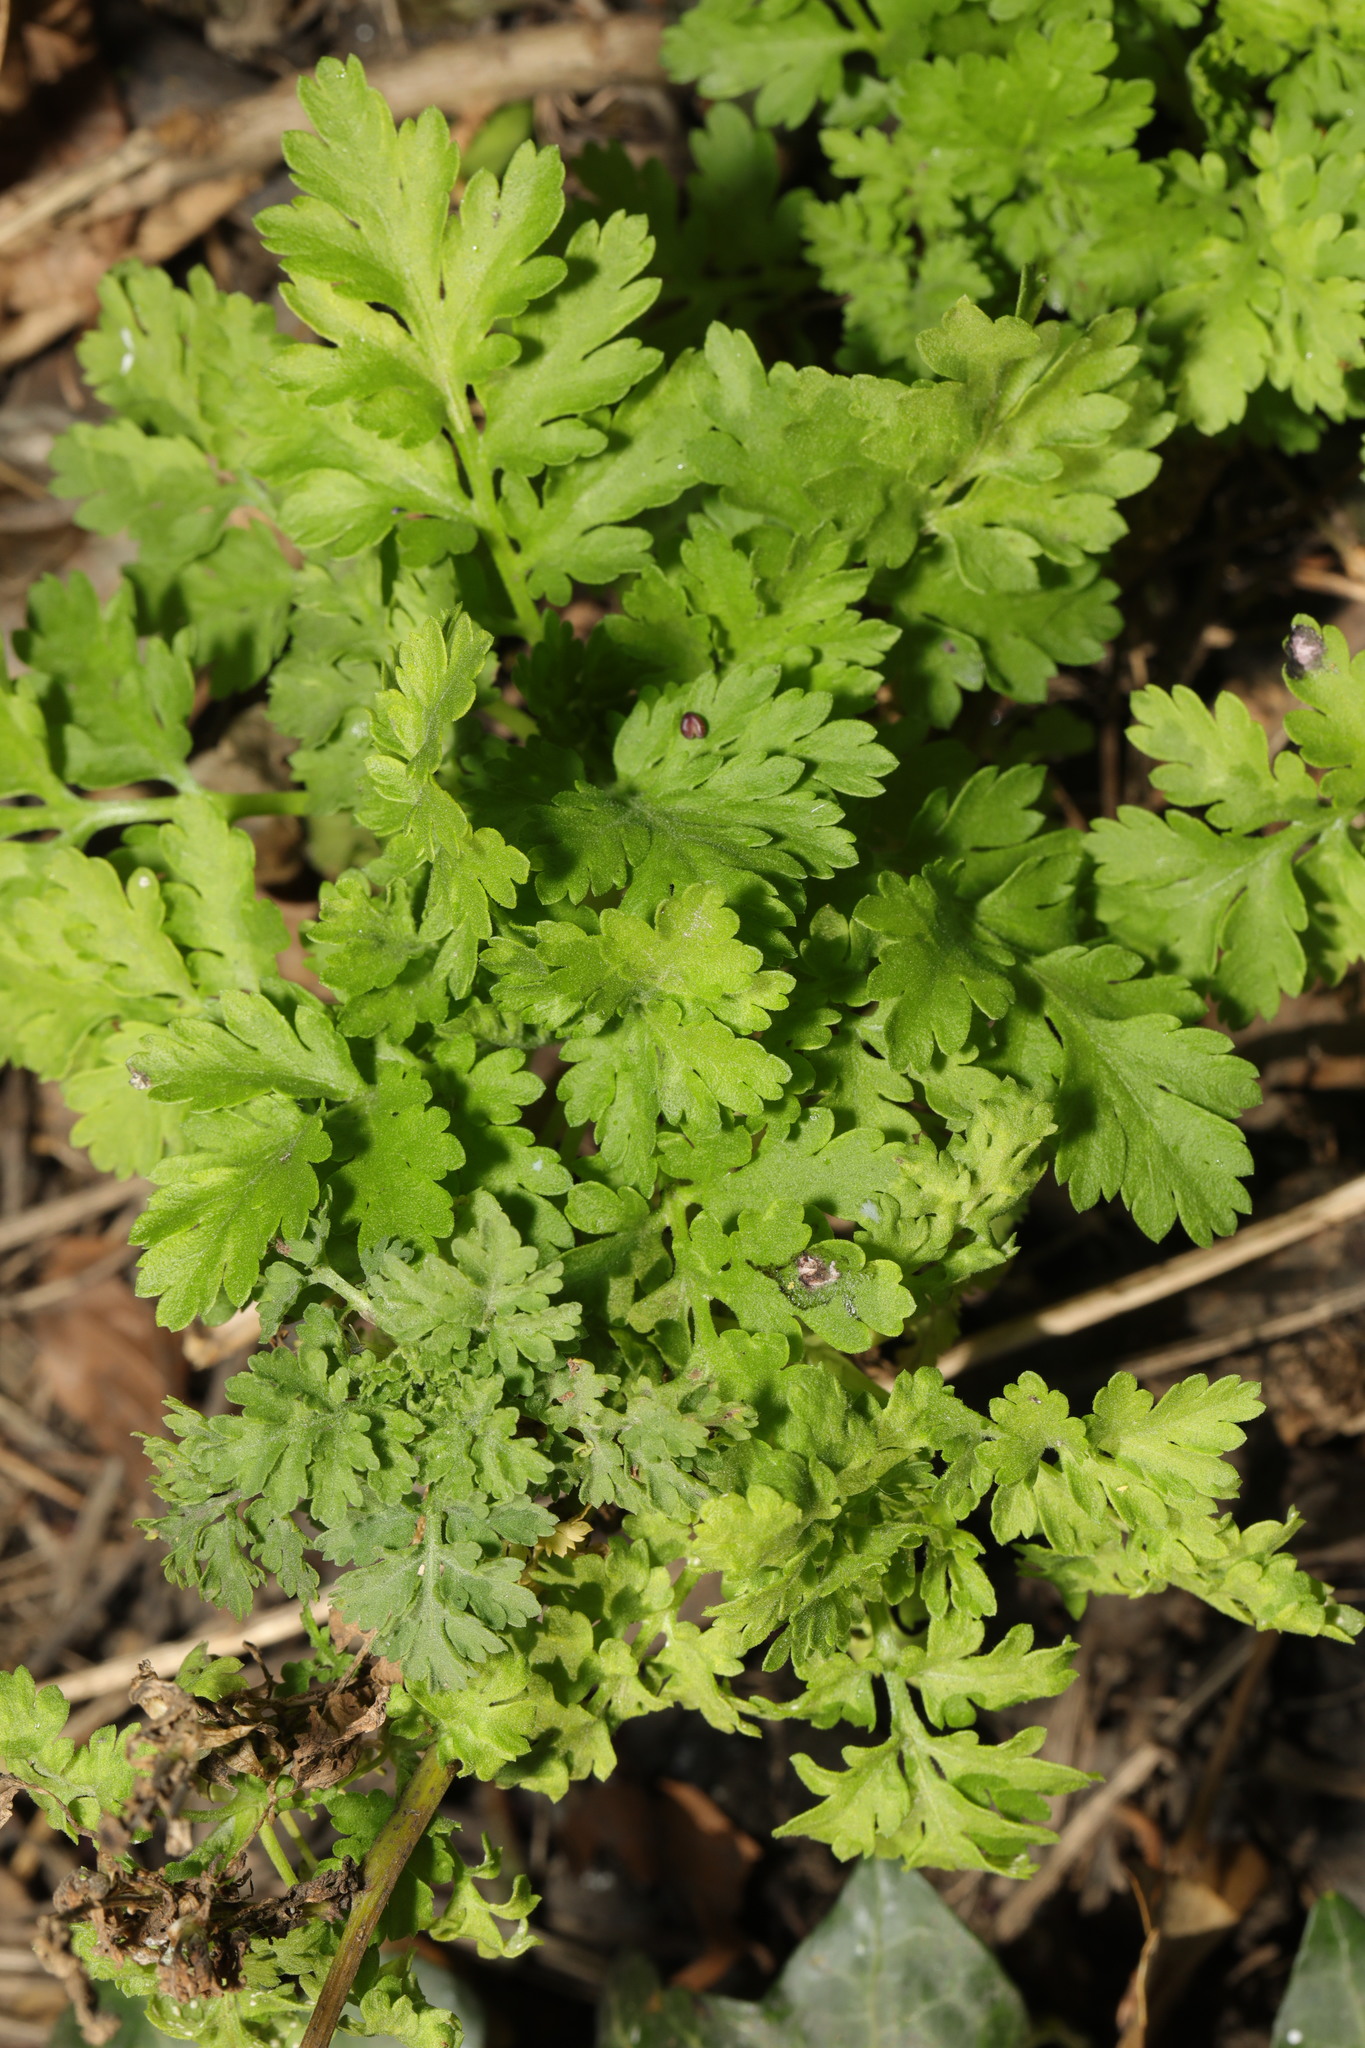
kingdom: Plantae
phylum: Tracheophyta
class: Magnoliopsida
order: Asterales
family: Asteraceae
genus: Tanacetum
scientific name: Tanacetum parthenium
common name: Feverfew
